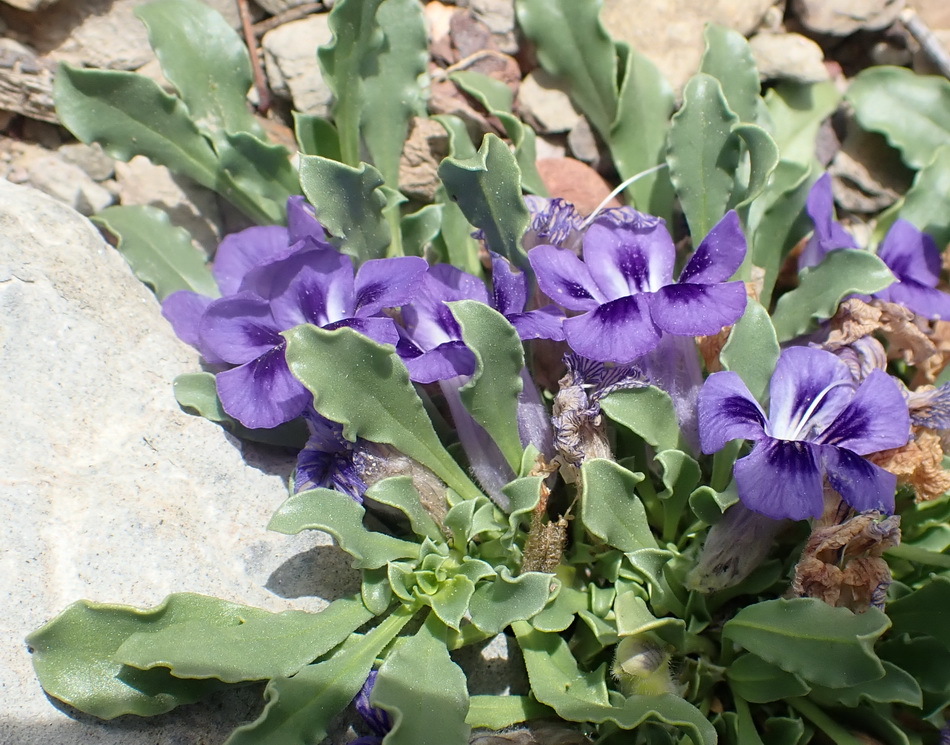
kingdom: Plantae
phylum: Tracheophyta
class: Magnoliopsida
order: Lamiales
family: Scrophulariaceae
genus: Aptosimum
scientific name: Aptosimum indivisum
